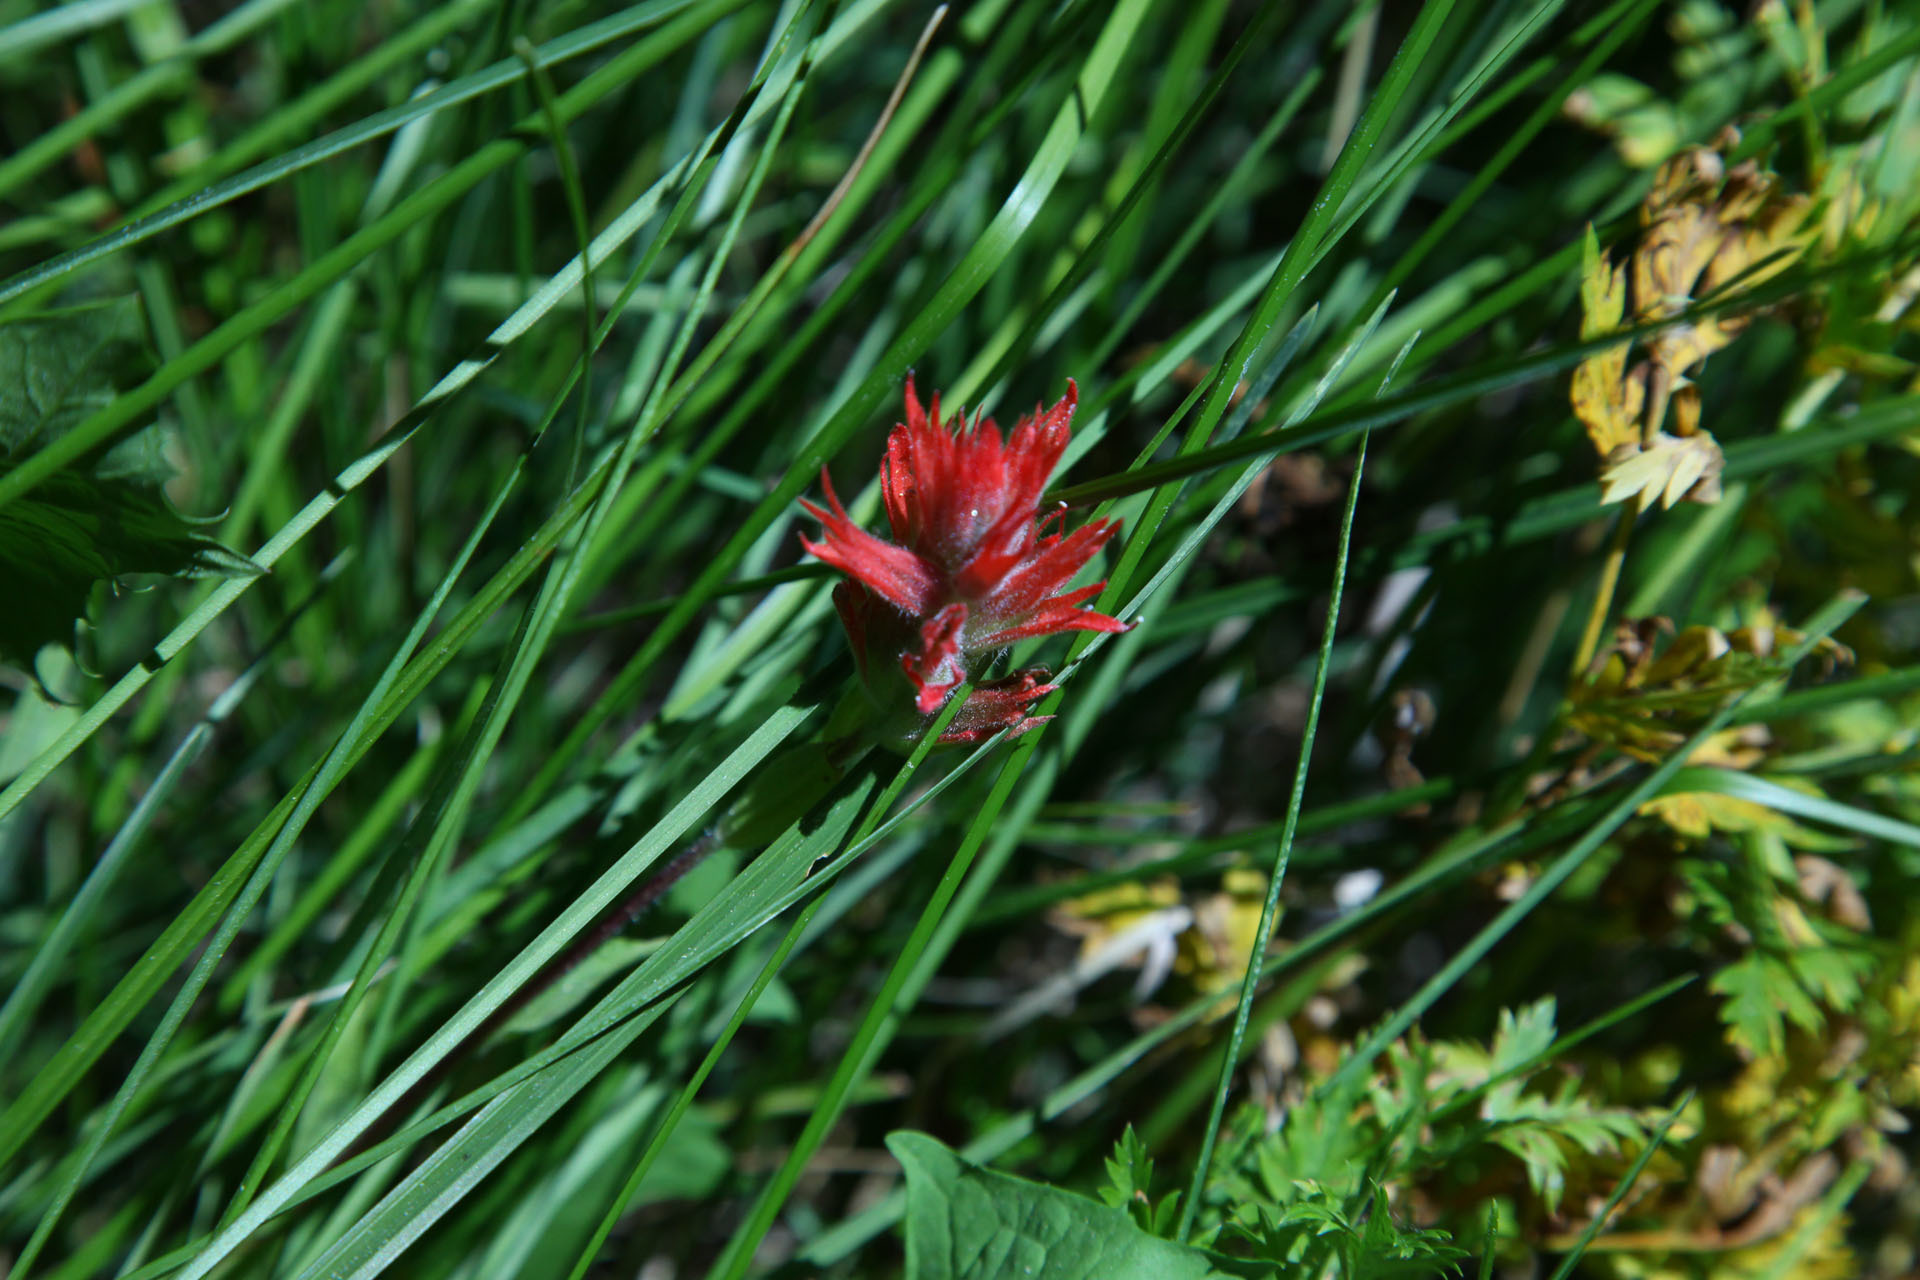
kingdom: Plantae
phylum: Tracheophyta
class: Magnoliopsida
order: Lamiales
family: Orobanchaceae
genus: Castilleja
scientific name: Castilleja
